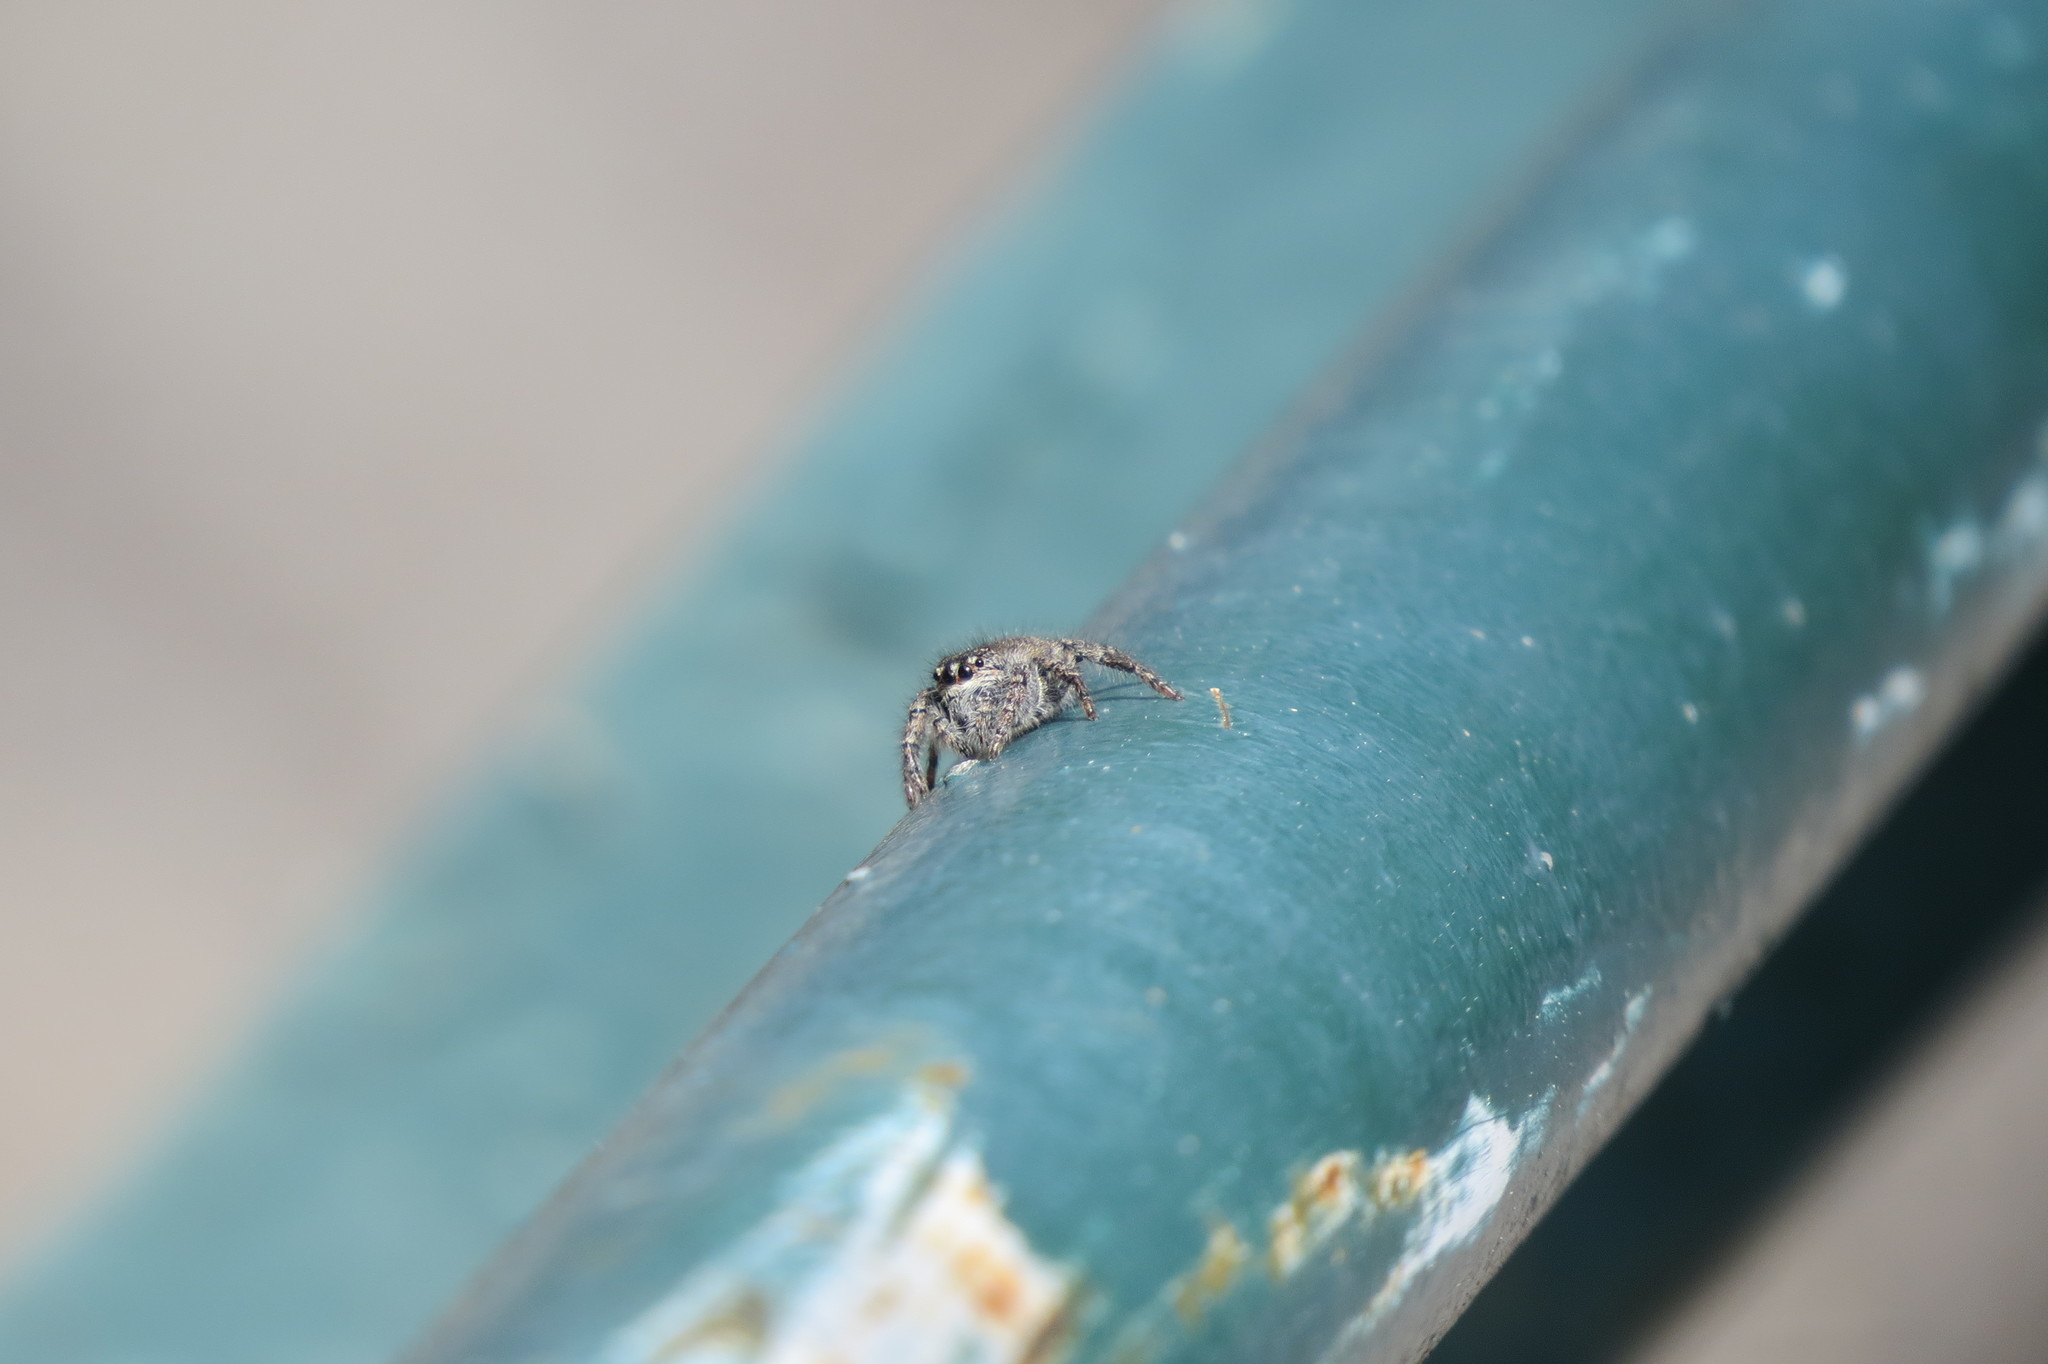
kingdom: Animalia
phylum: Arthropoda
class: Arachnida
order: Araneae
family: Salticidae
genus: Philaeus
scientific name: Philaeus chrysops
